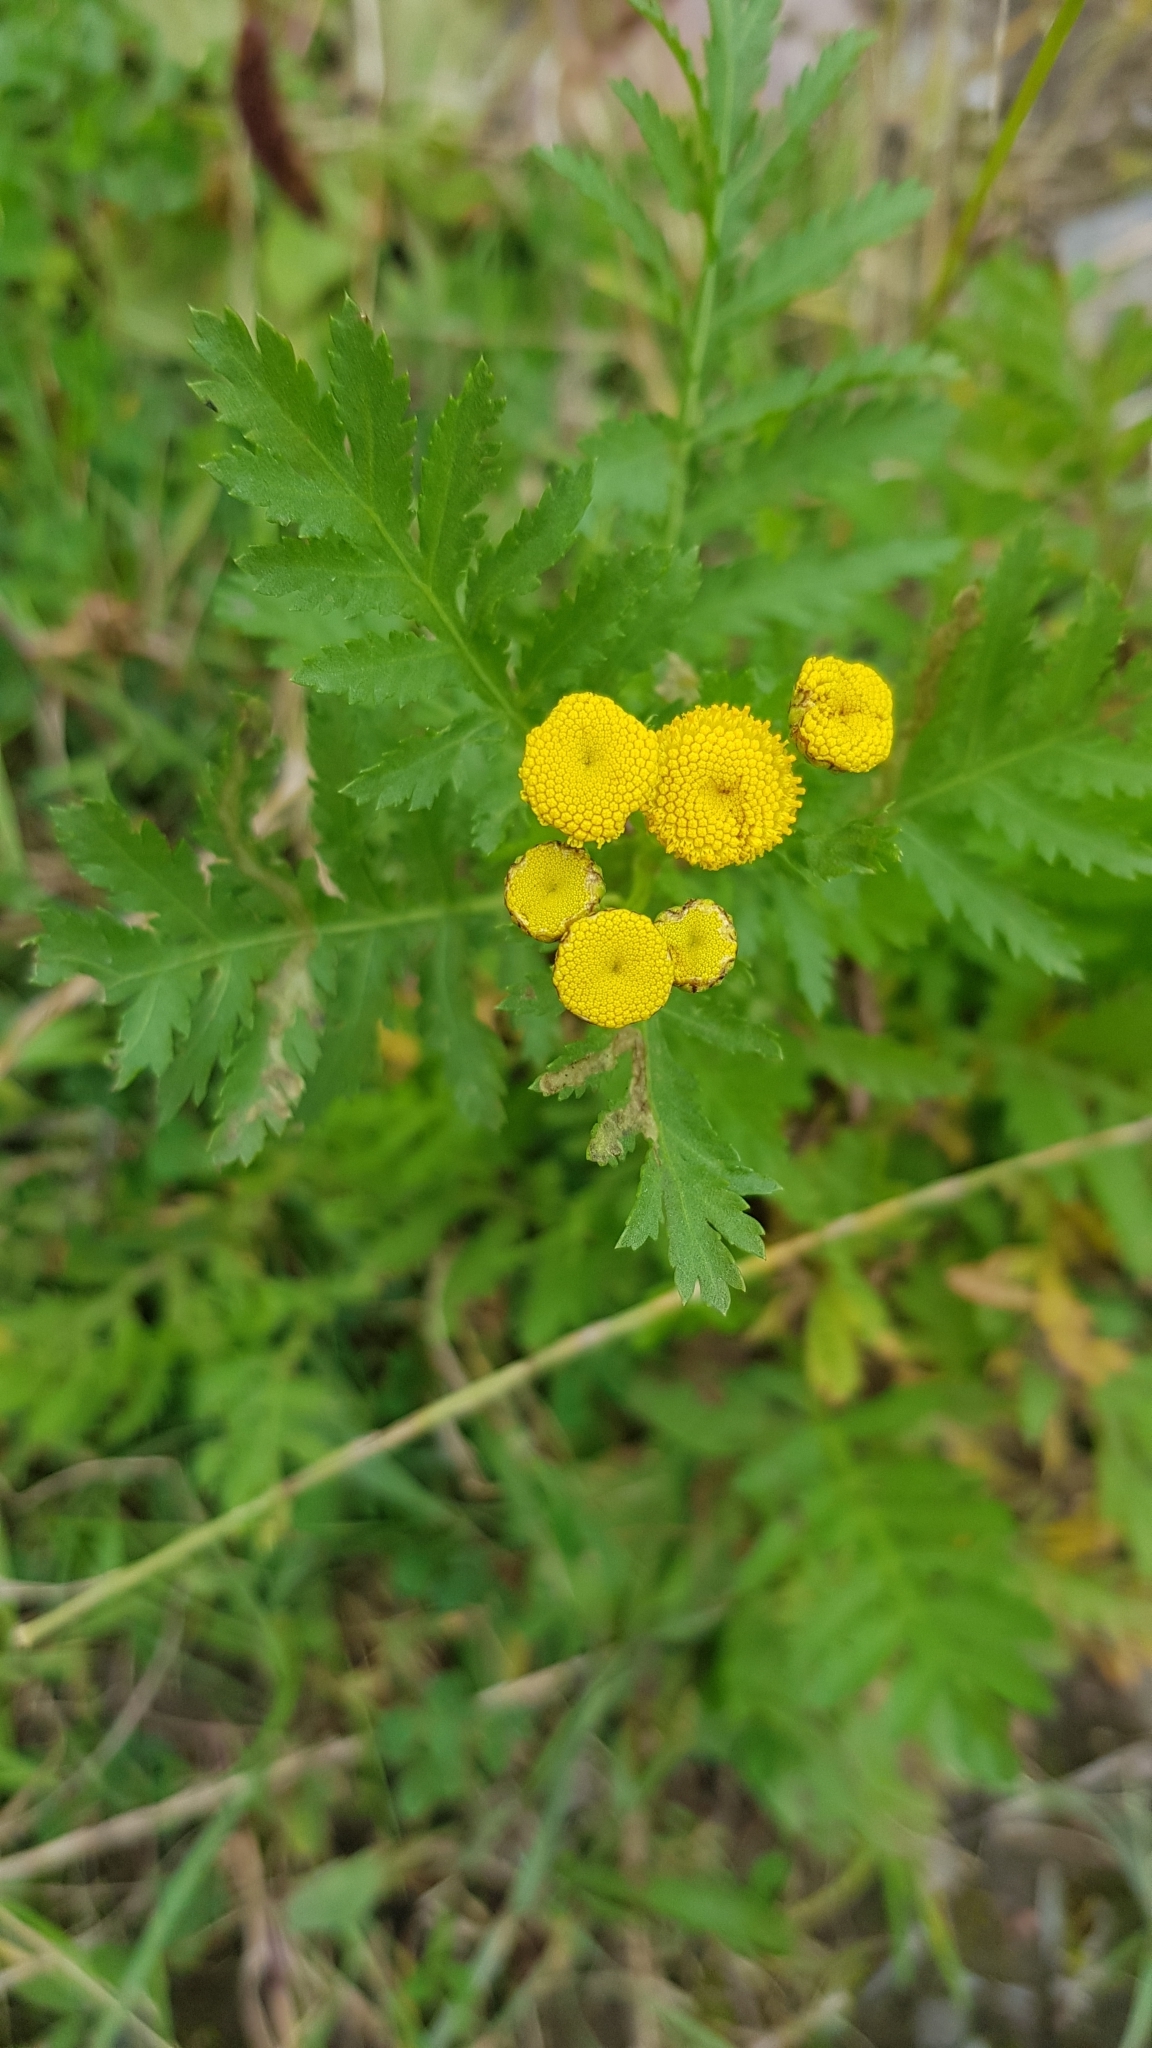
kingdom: Plantae
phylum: Tracheophyta
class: Magnoliopsida
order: Asterales
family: Asteraceae
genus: Tanacetum
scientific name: Tanacetum vulgare
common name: Common tansy
